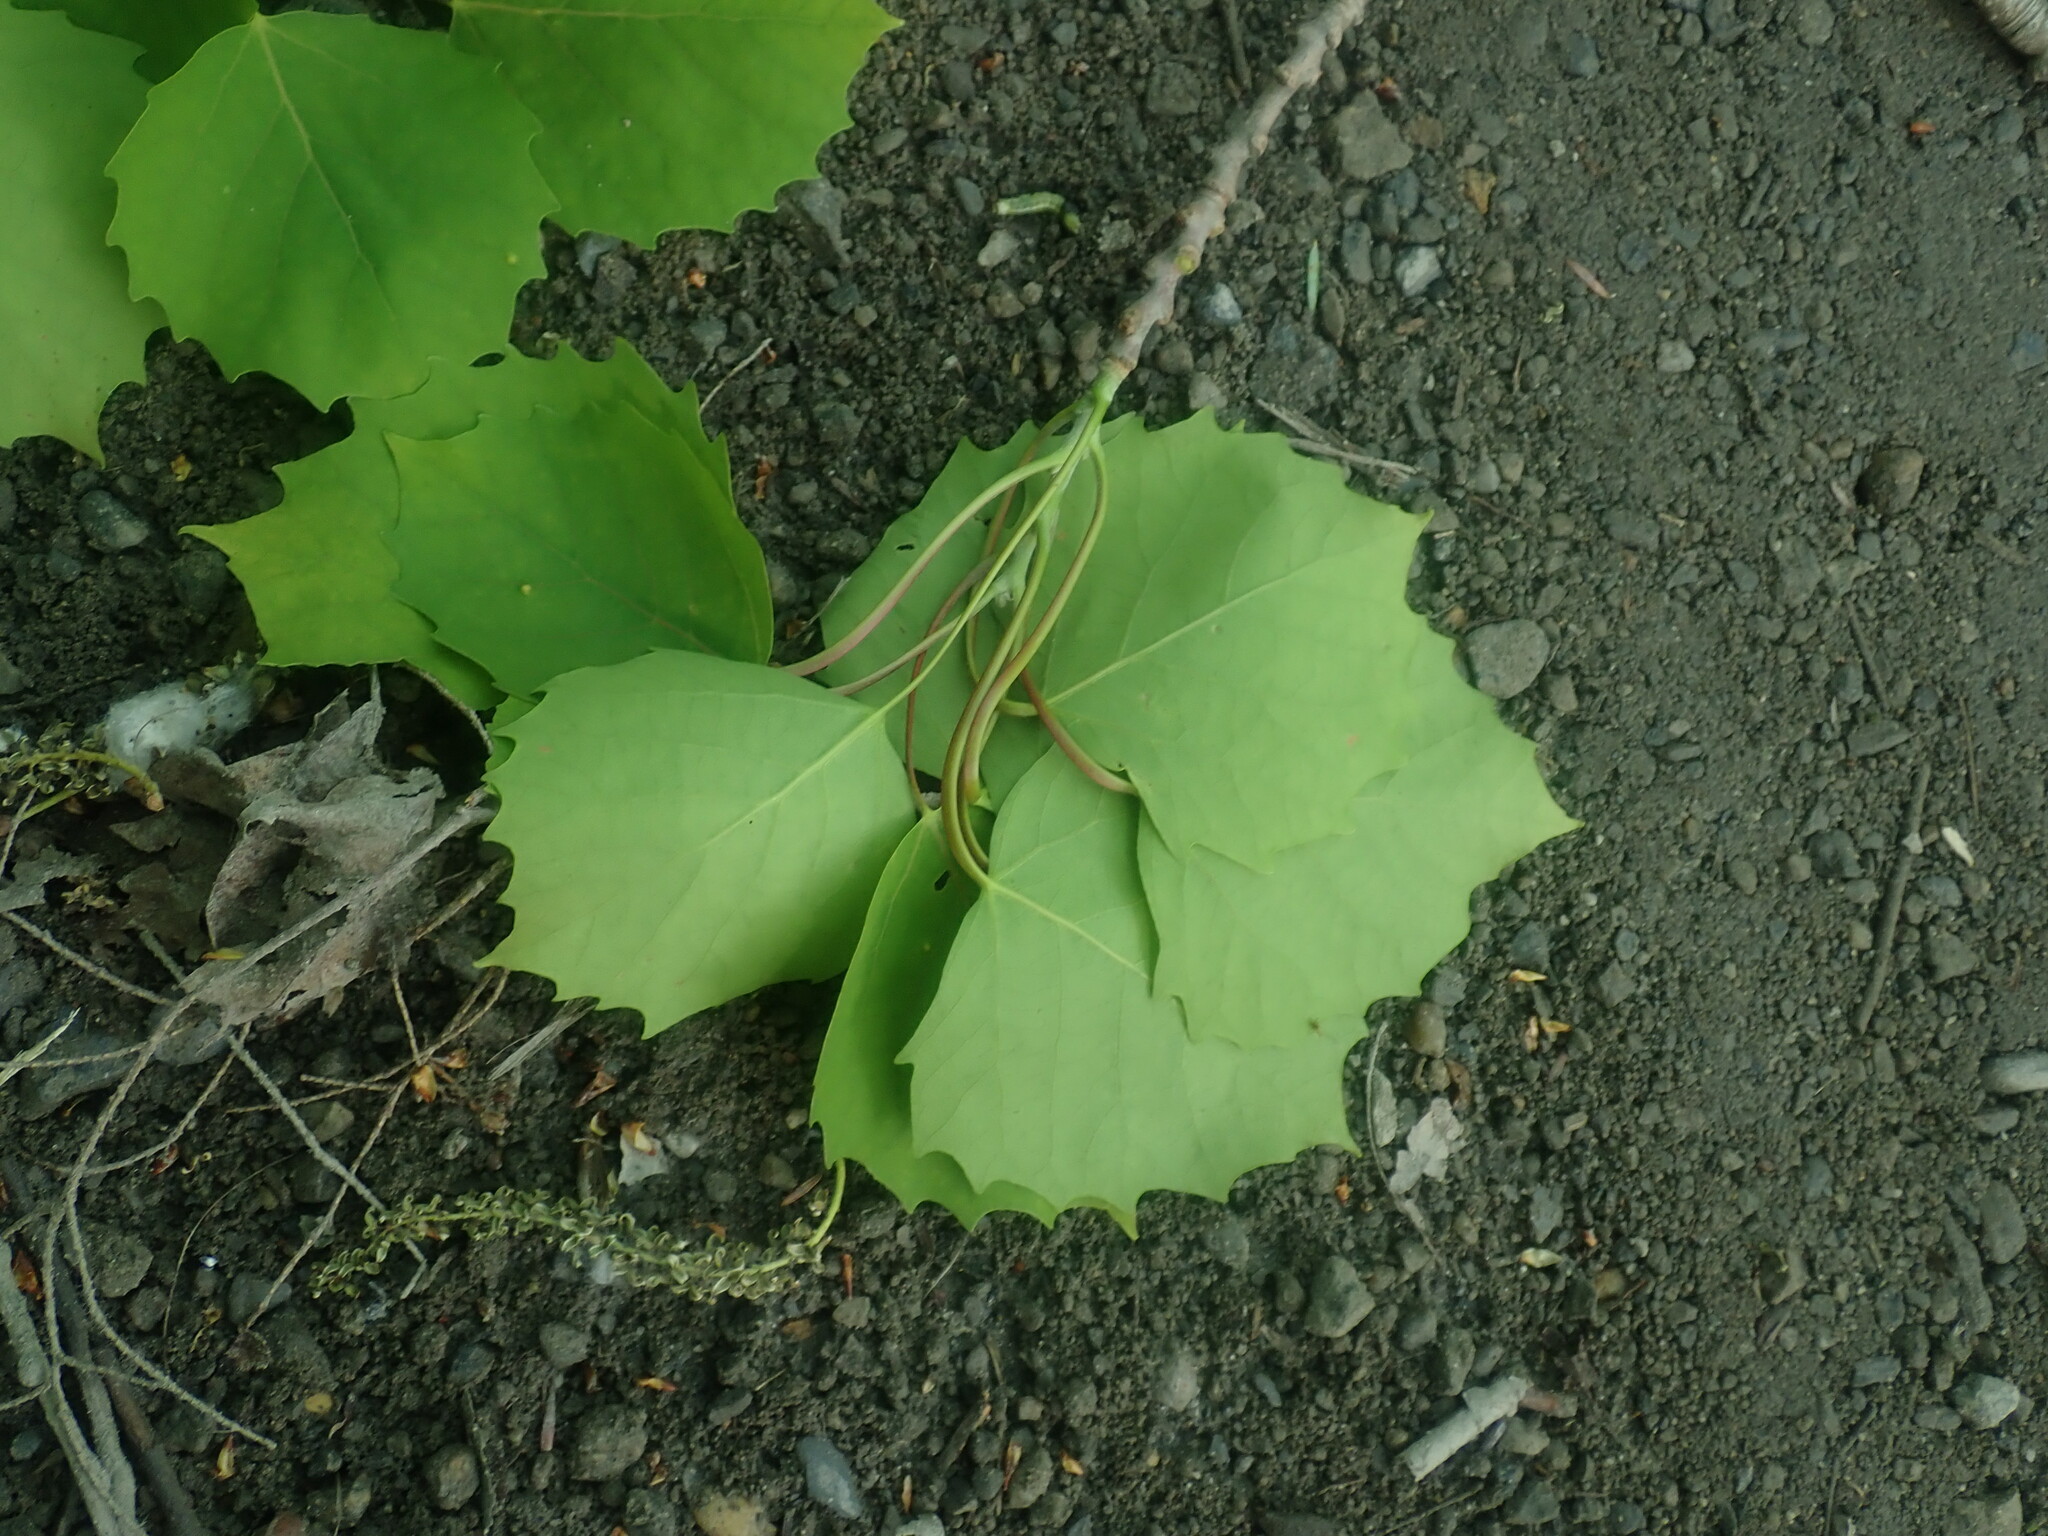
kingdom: Plantae
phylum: Tracheophyta
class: Magnoliopsida
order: Malpighiales
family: Salicaceae
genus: Populus
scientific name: Populus grandidentata
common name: Bigtooth aspen
